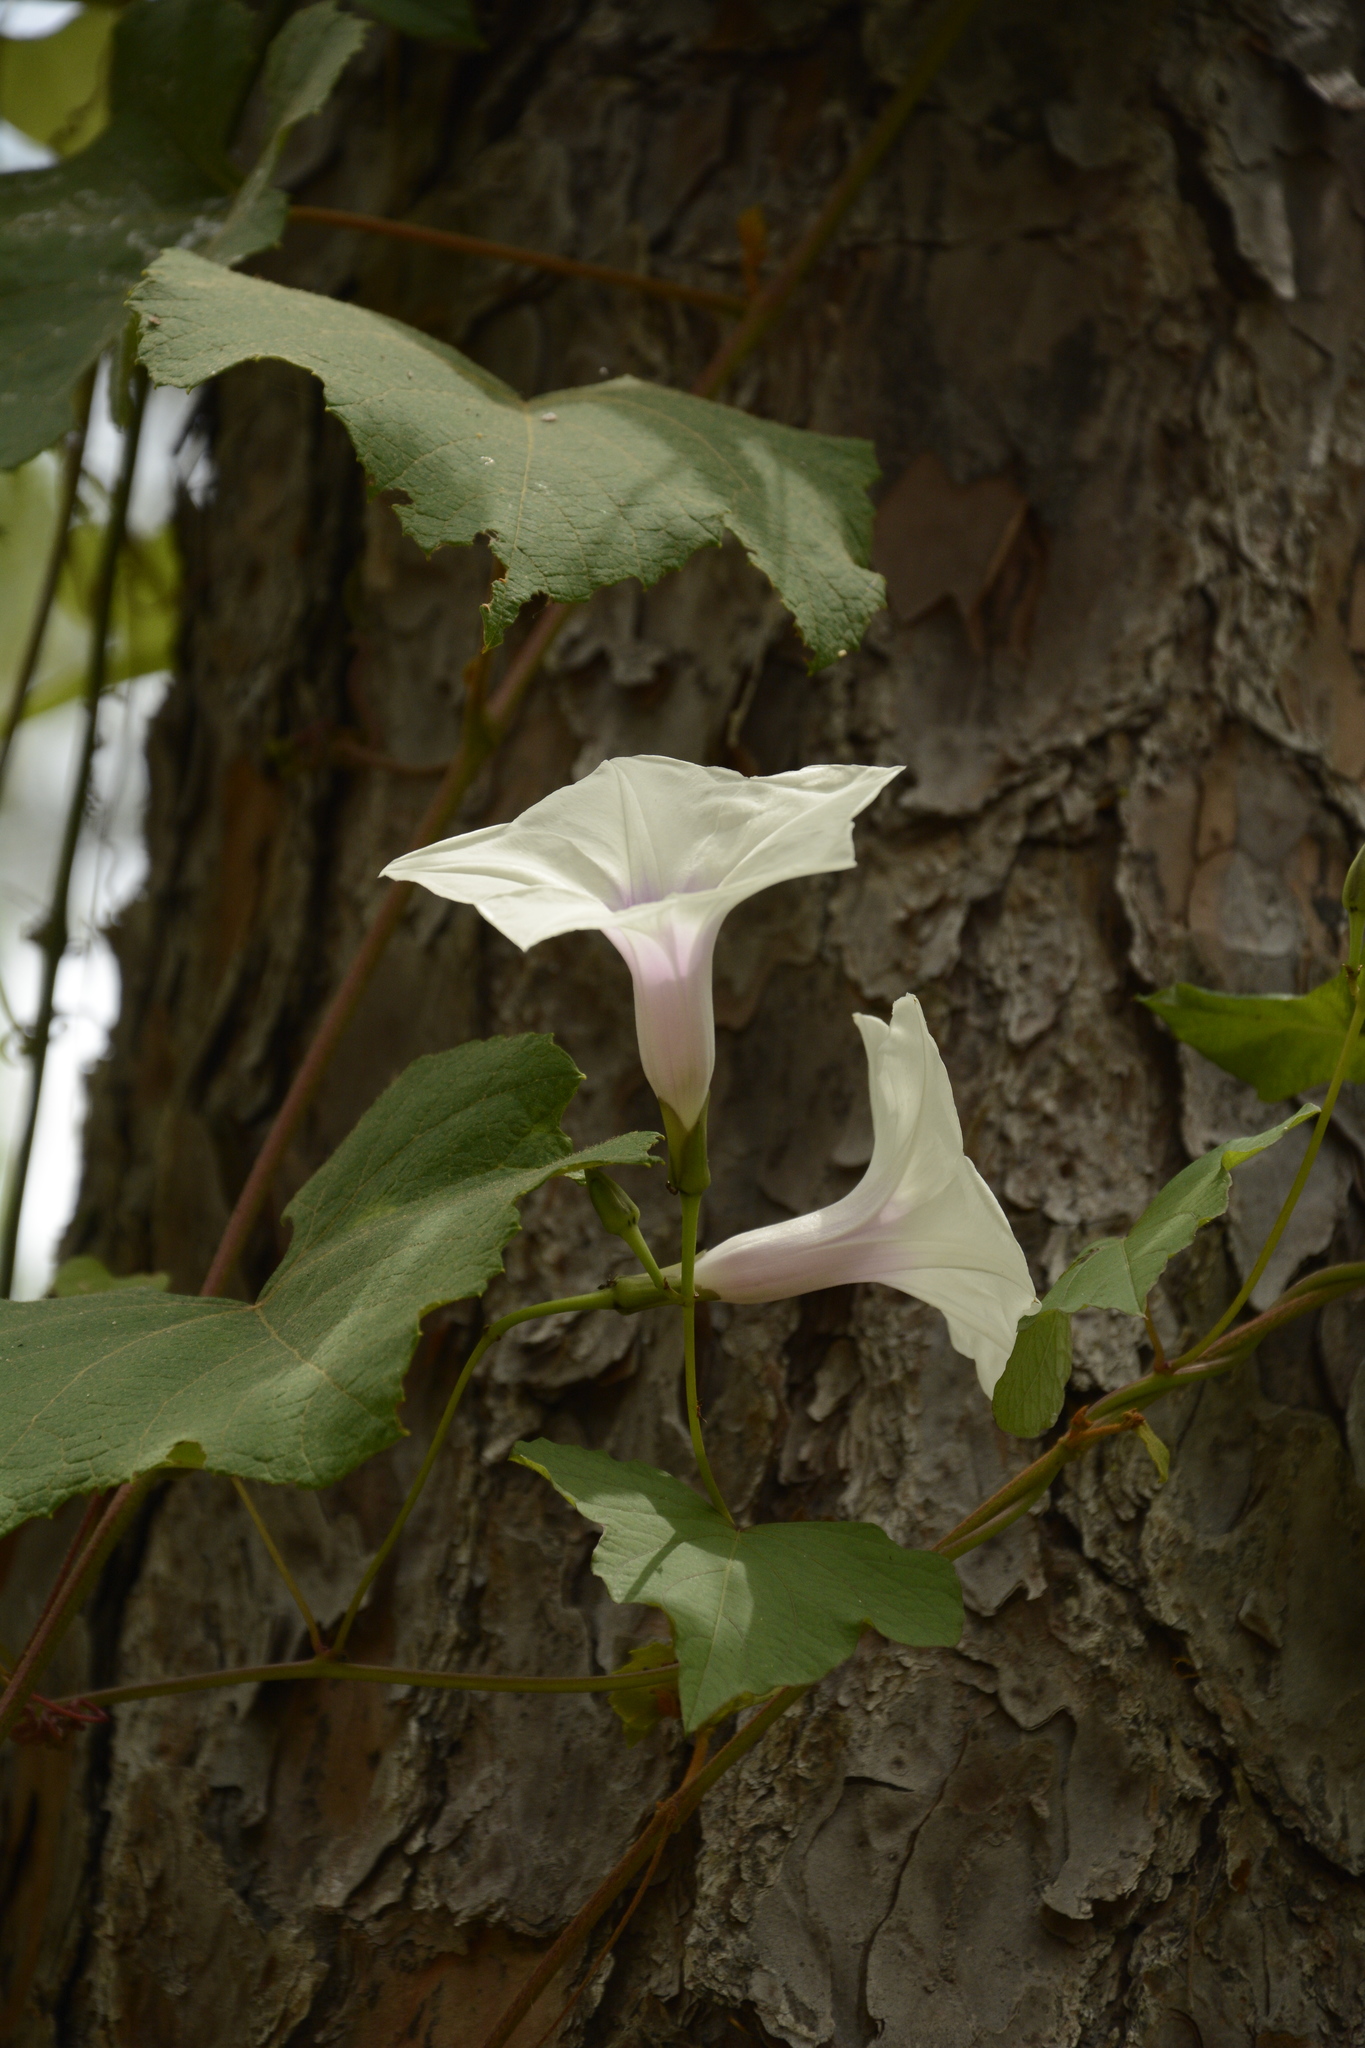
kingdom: Plantae
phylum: Tracheophyta
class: Magnoliopsida
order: Solanales
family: Convolvulaceae
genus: Ipomoea
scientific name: Ipomoea pandurata
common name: Man-of-the-earth
